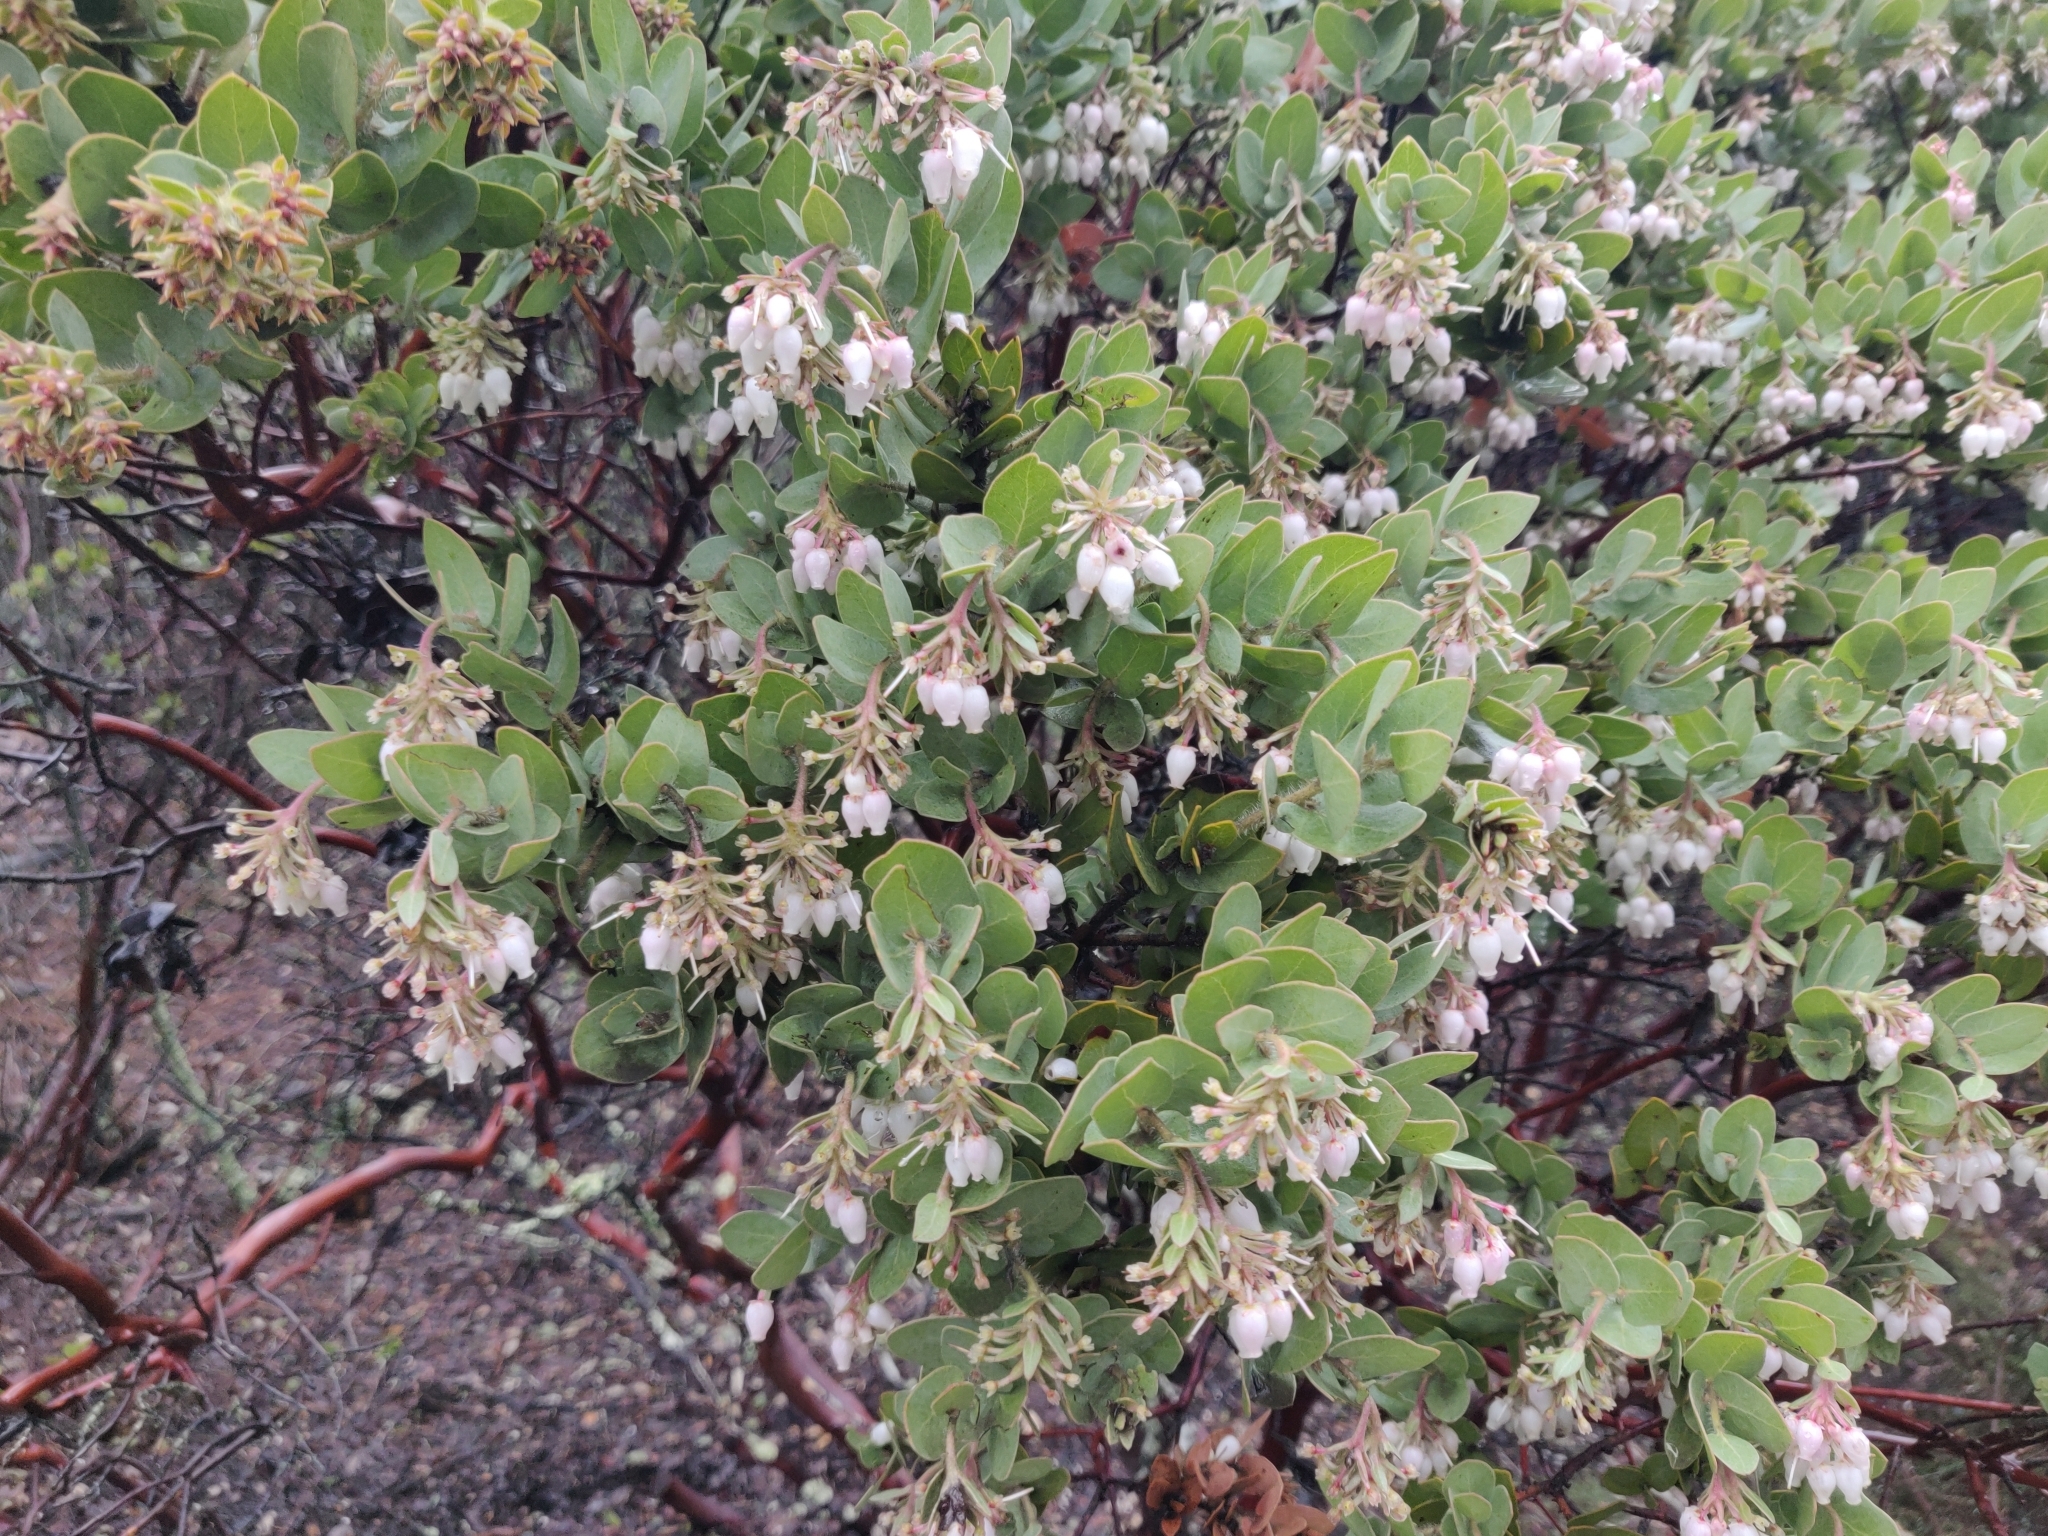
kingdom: Plantae
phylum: Tracheophyta
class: Magnoliopsida
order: Ericales
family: Ericaceae
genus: Arctostaphylos
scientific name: Arctostaphylos auriculata
